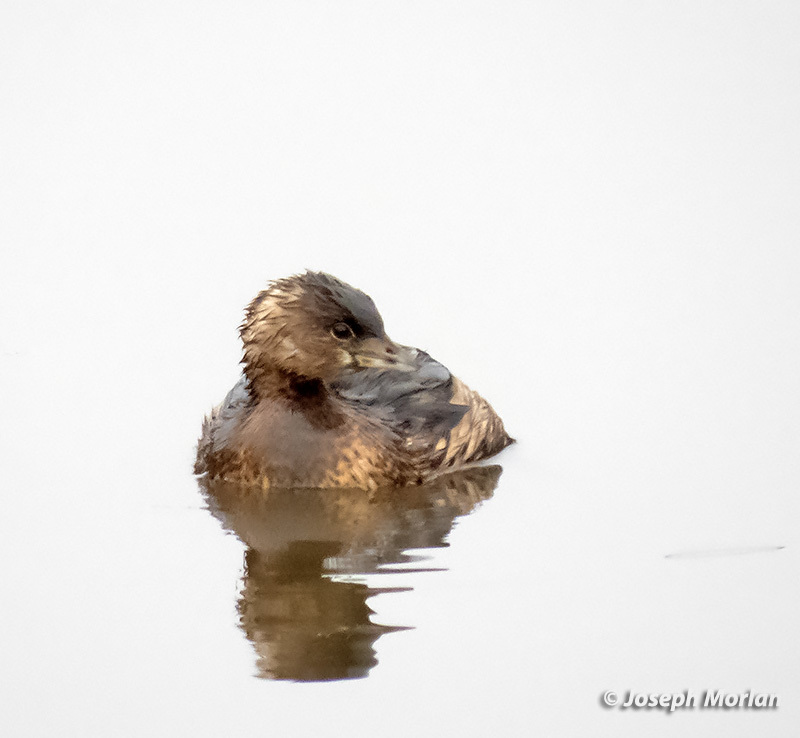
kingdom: Animalia
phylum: Chordata
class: Aves
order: Podicipediformes
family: Podicipedidae
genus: Podilymbus
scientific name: Podilymbus podiceps
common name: Pied-billed grebe
